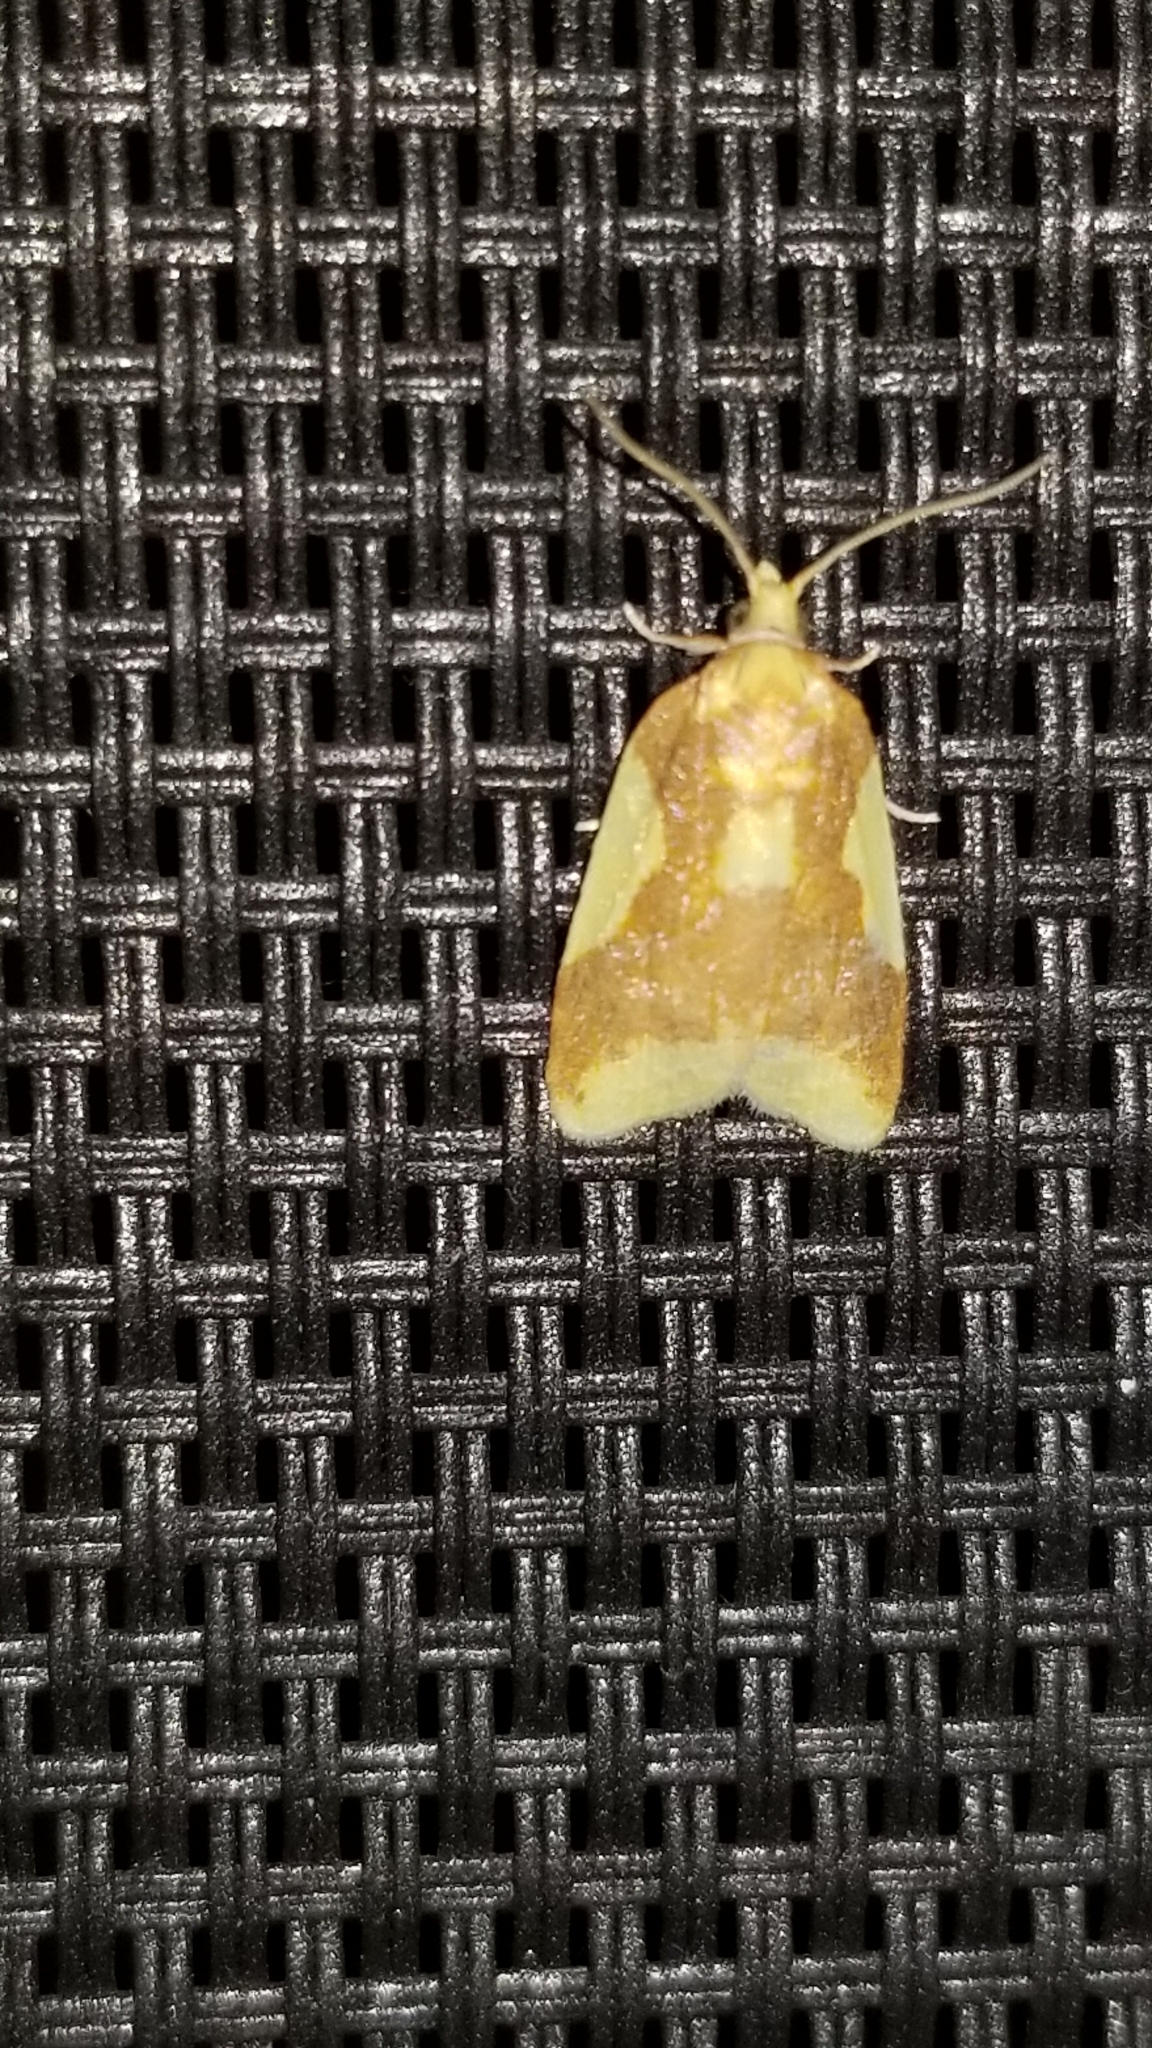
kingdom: Animalia
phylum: Arthropoda
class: Insecta
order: Lepidoptera
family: Tortricidae
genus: Sparganothis
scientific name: Sparganothis pulcherrimana
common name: Beautiful sparganothis
